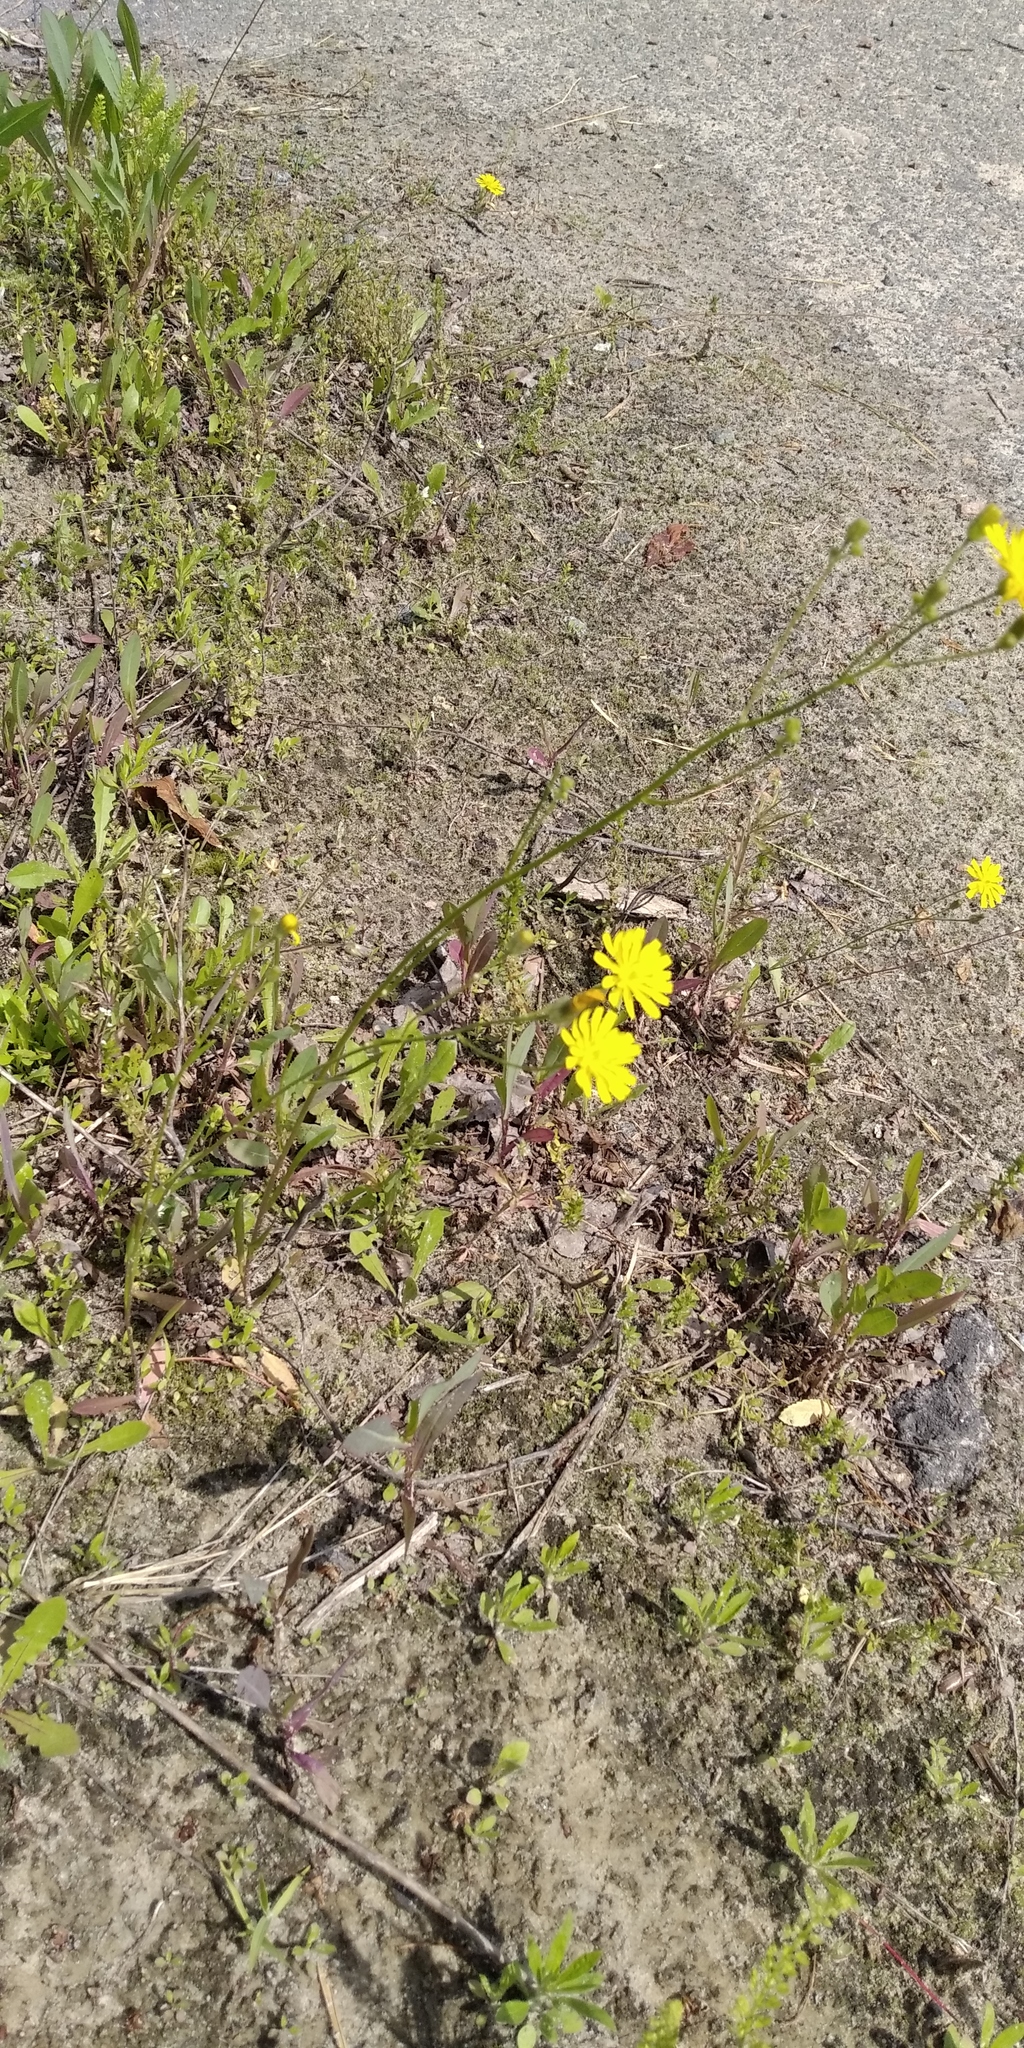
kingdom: Plantae
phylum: Tracheophyta
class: Magnoliopsida
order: Asterales
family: Asteraceae
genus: Crepis
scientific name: Crepis tectorum
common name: Narrow-leaved hawk's-beard
